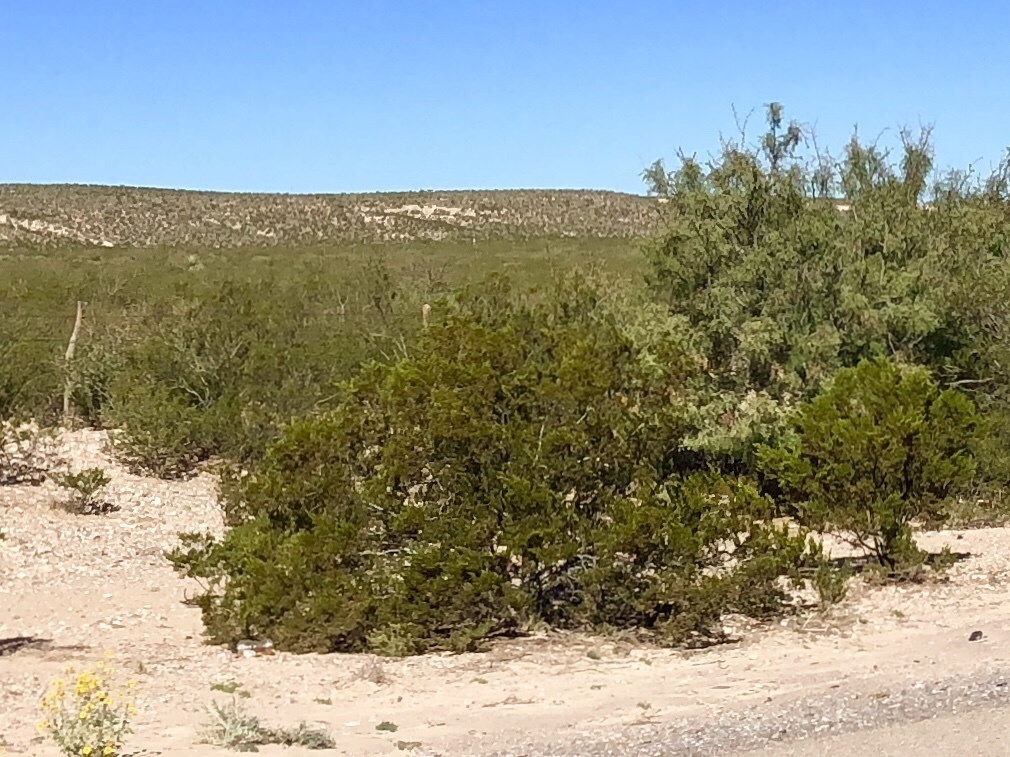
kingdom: Plantae
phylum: Tracheophyta
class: Magnoliopsida
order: Zygophyllales
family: Zygophyllaceae
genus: Larrea
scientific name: Larrea tridentata
